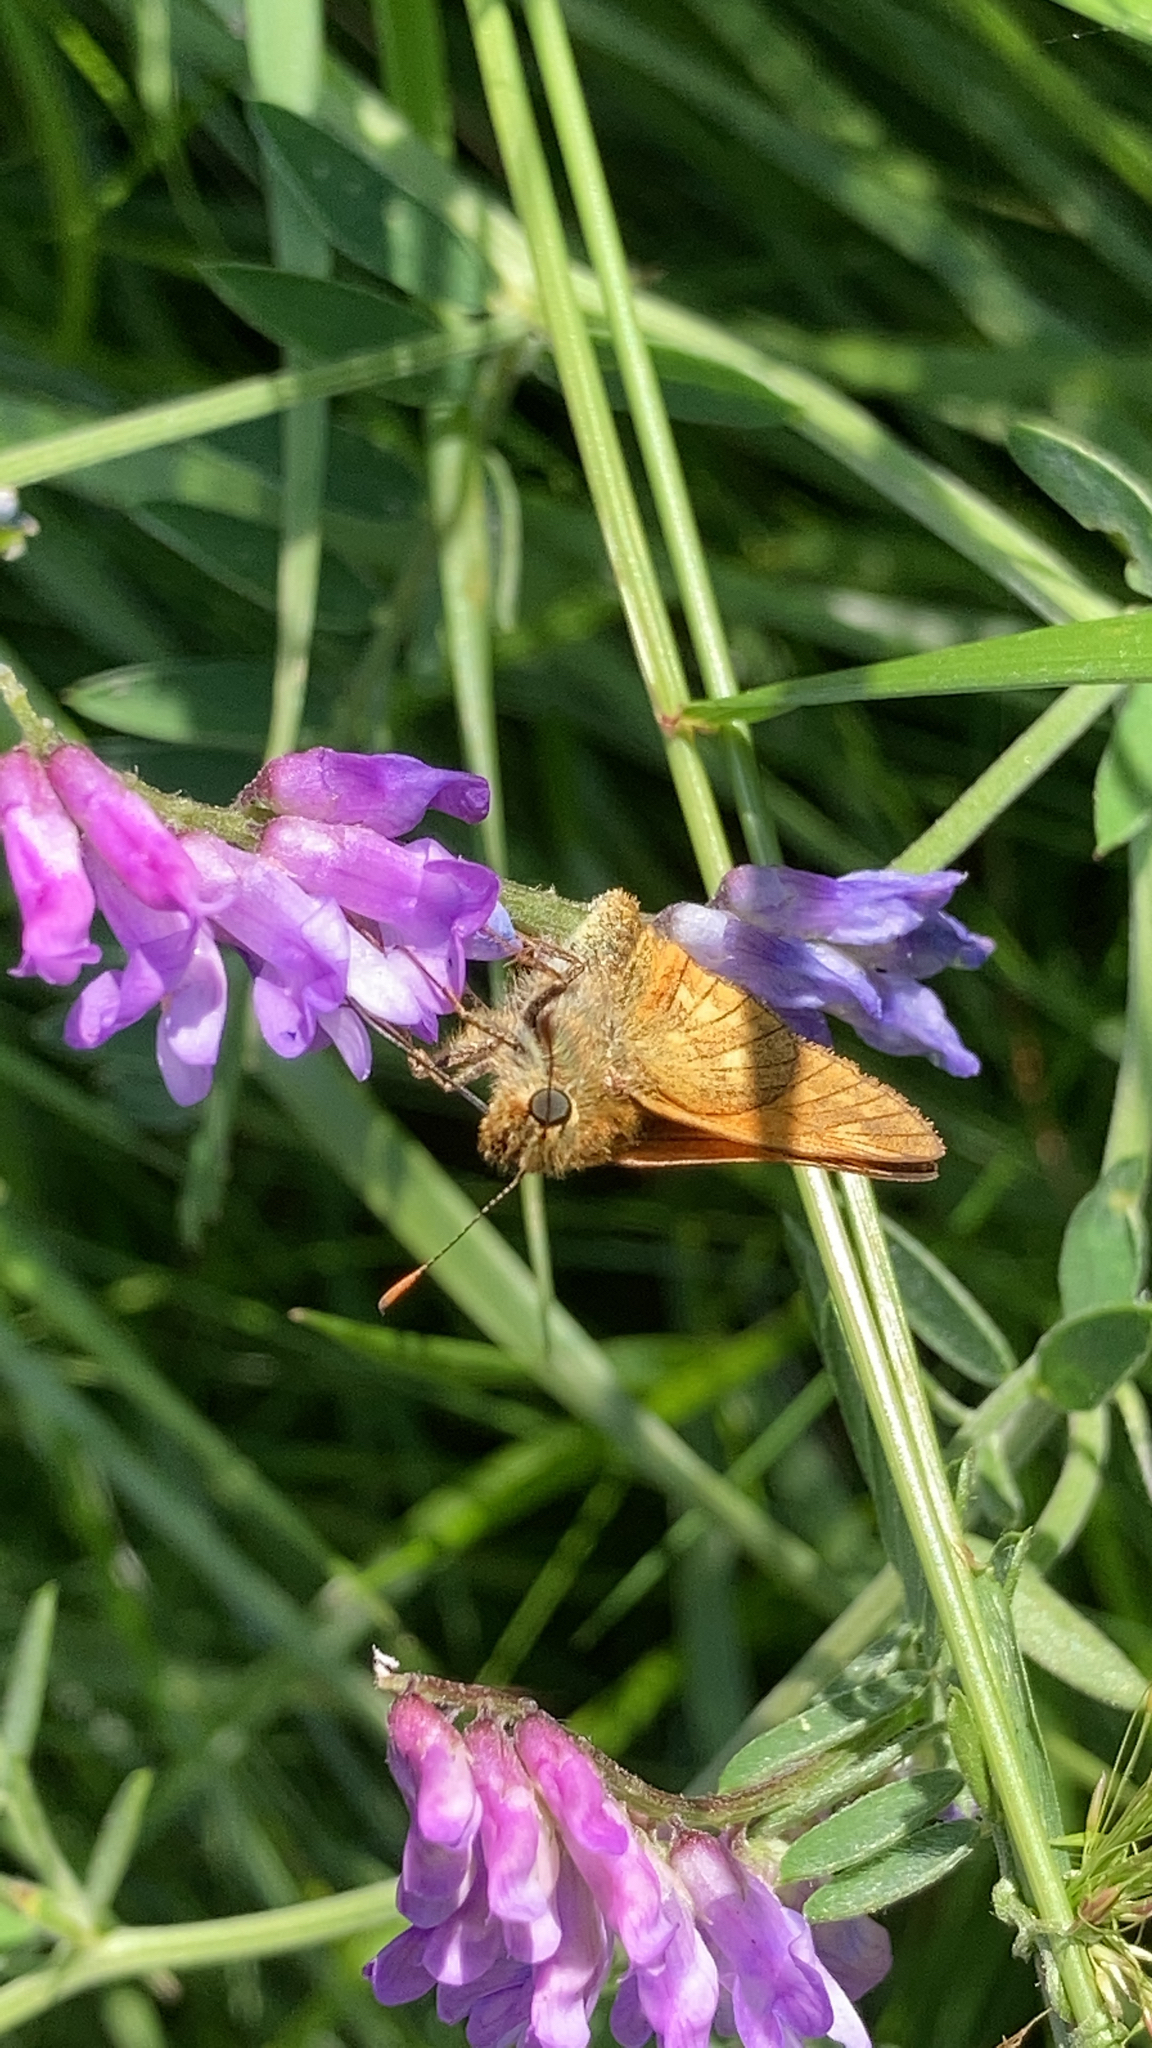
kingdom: Animalia
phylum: Arthropoda
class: Insecta
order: Lepidoptera
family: Hesperiidae
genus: Ochlodes
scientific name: Ochlodes venata
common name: Large skipper
